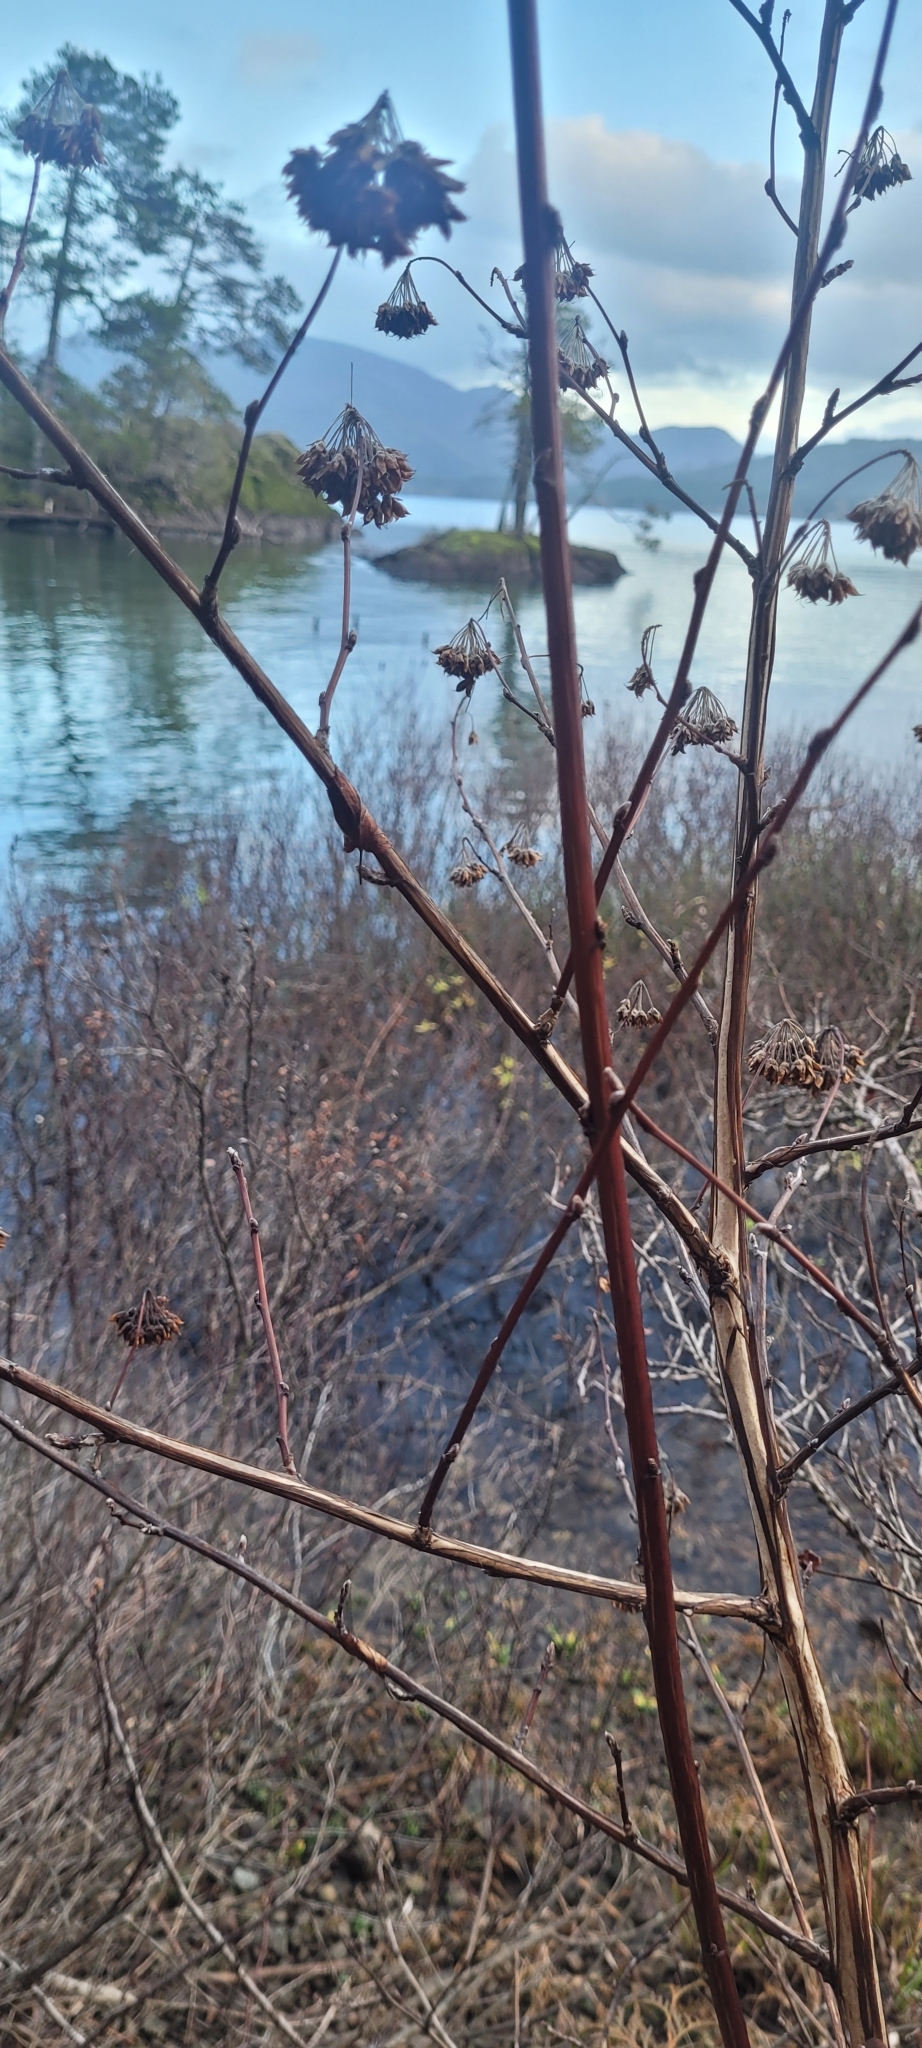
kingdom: Plantae
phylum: Tracheophyta
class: Magnoliopsida
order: Rosales
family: Rosaceae
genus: Physocarpus
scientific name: Physocarpus capitatus
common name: Pacific ninebark
